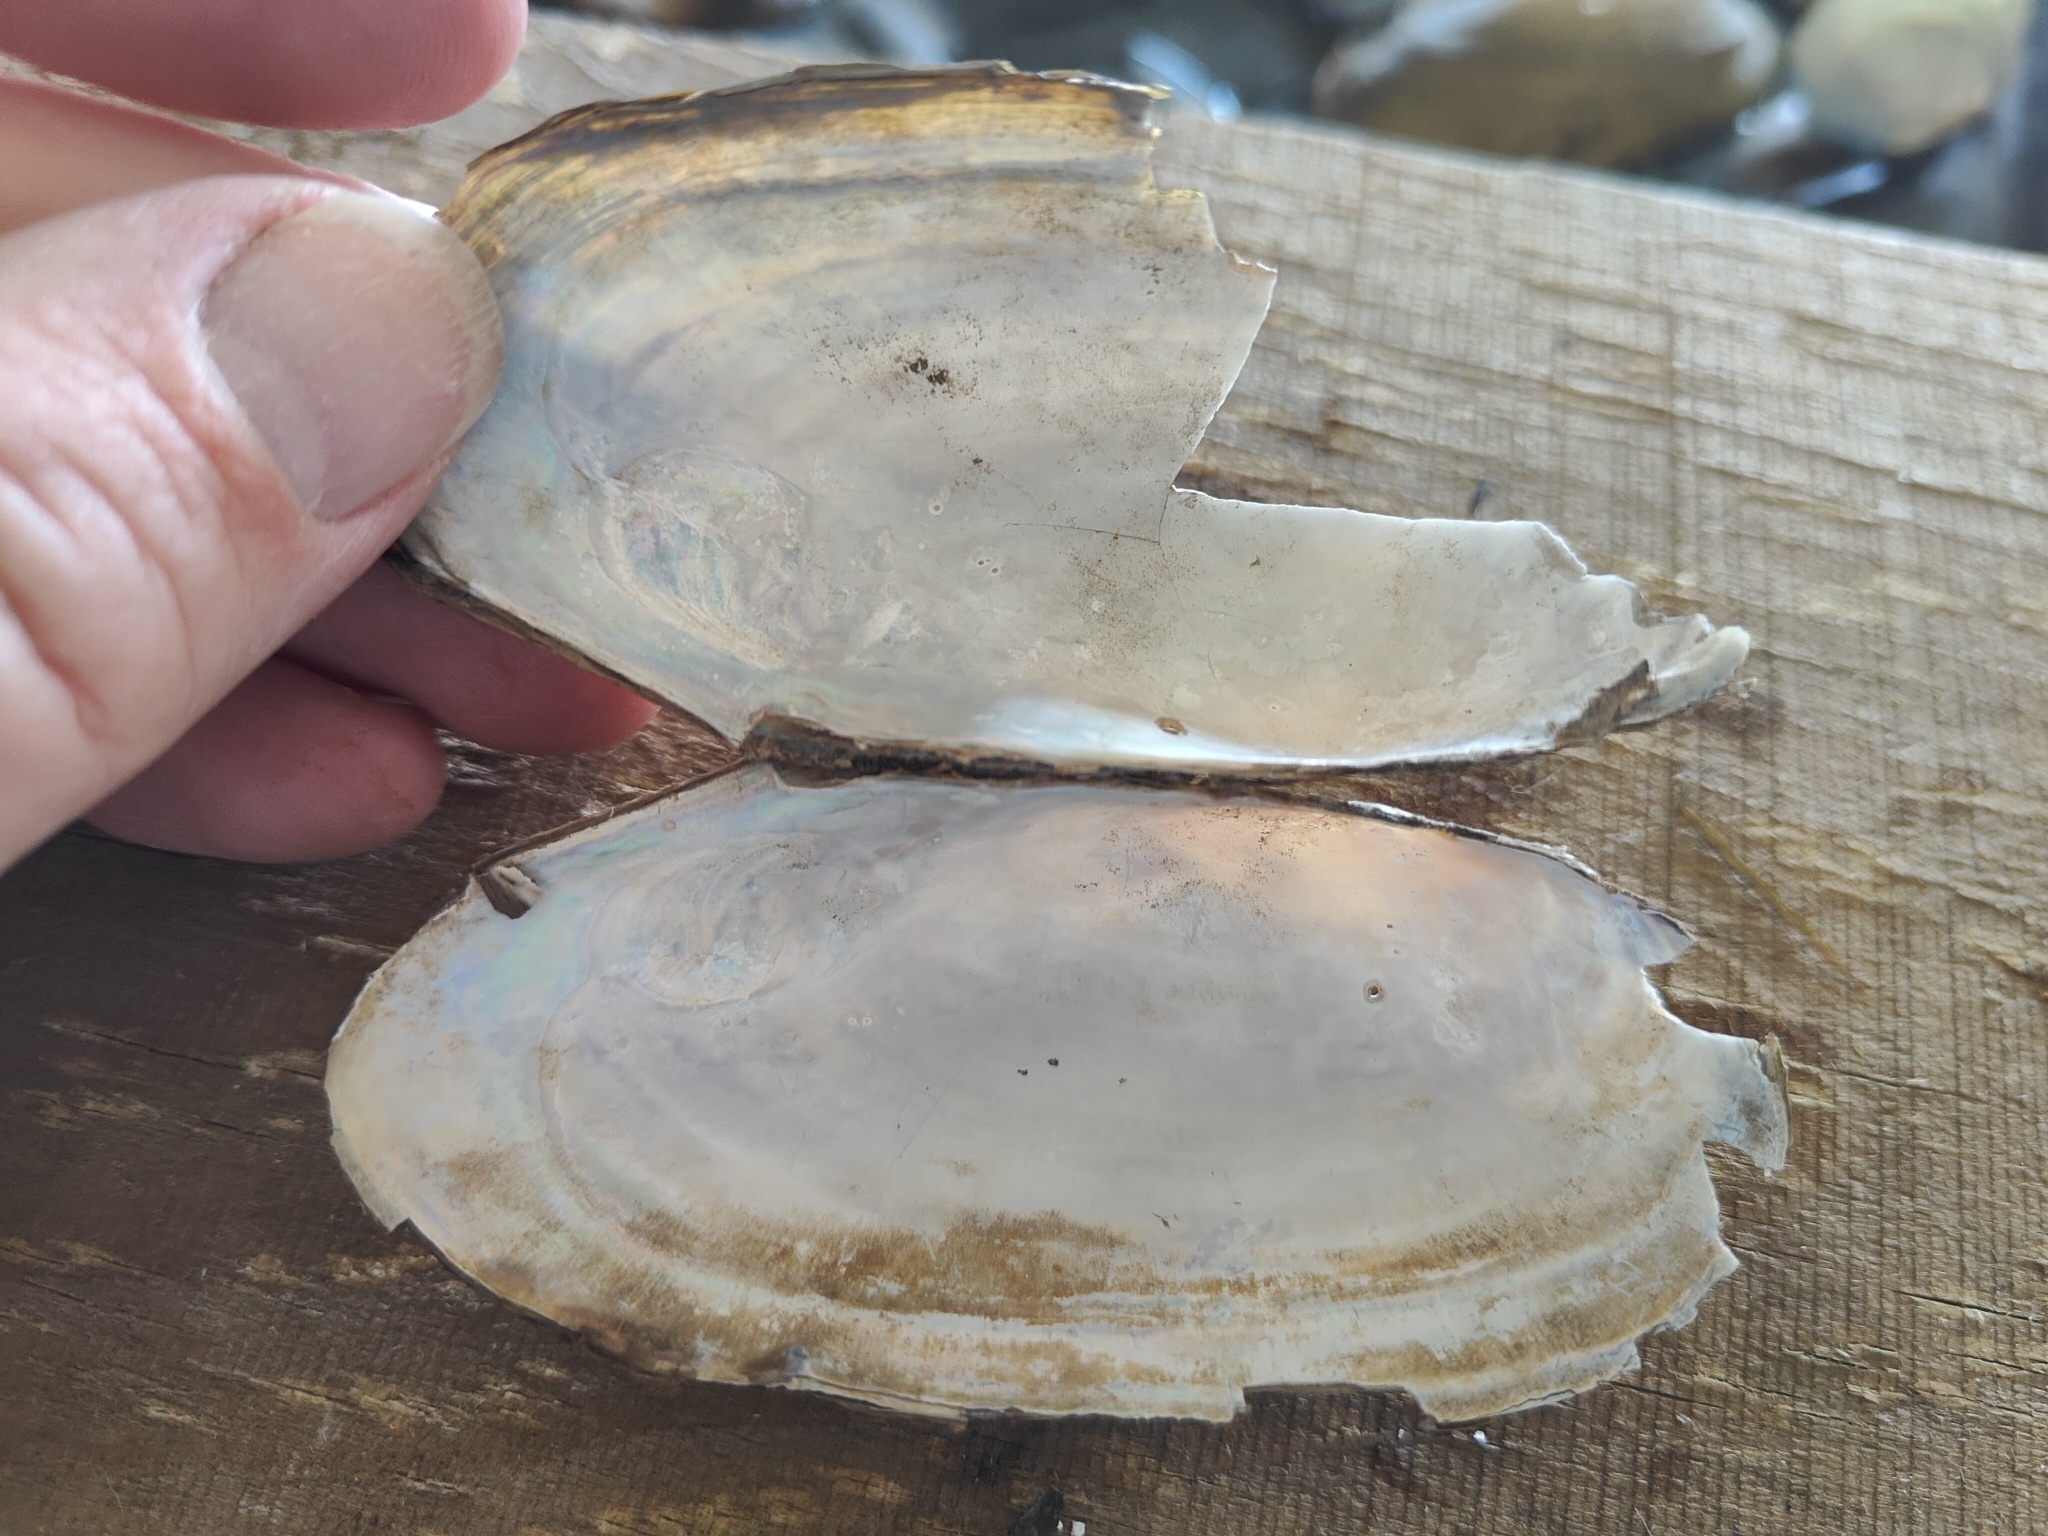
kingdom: Animalia
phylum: Mollusca
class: Bivalvia
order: Unionida
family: Unionidae
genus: Utterbackia
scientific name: Utterbackia imbecillis
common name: Paper pondshell
